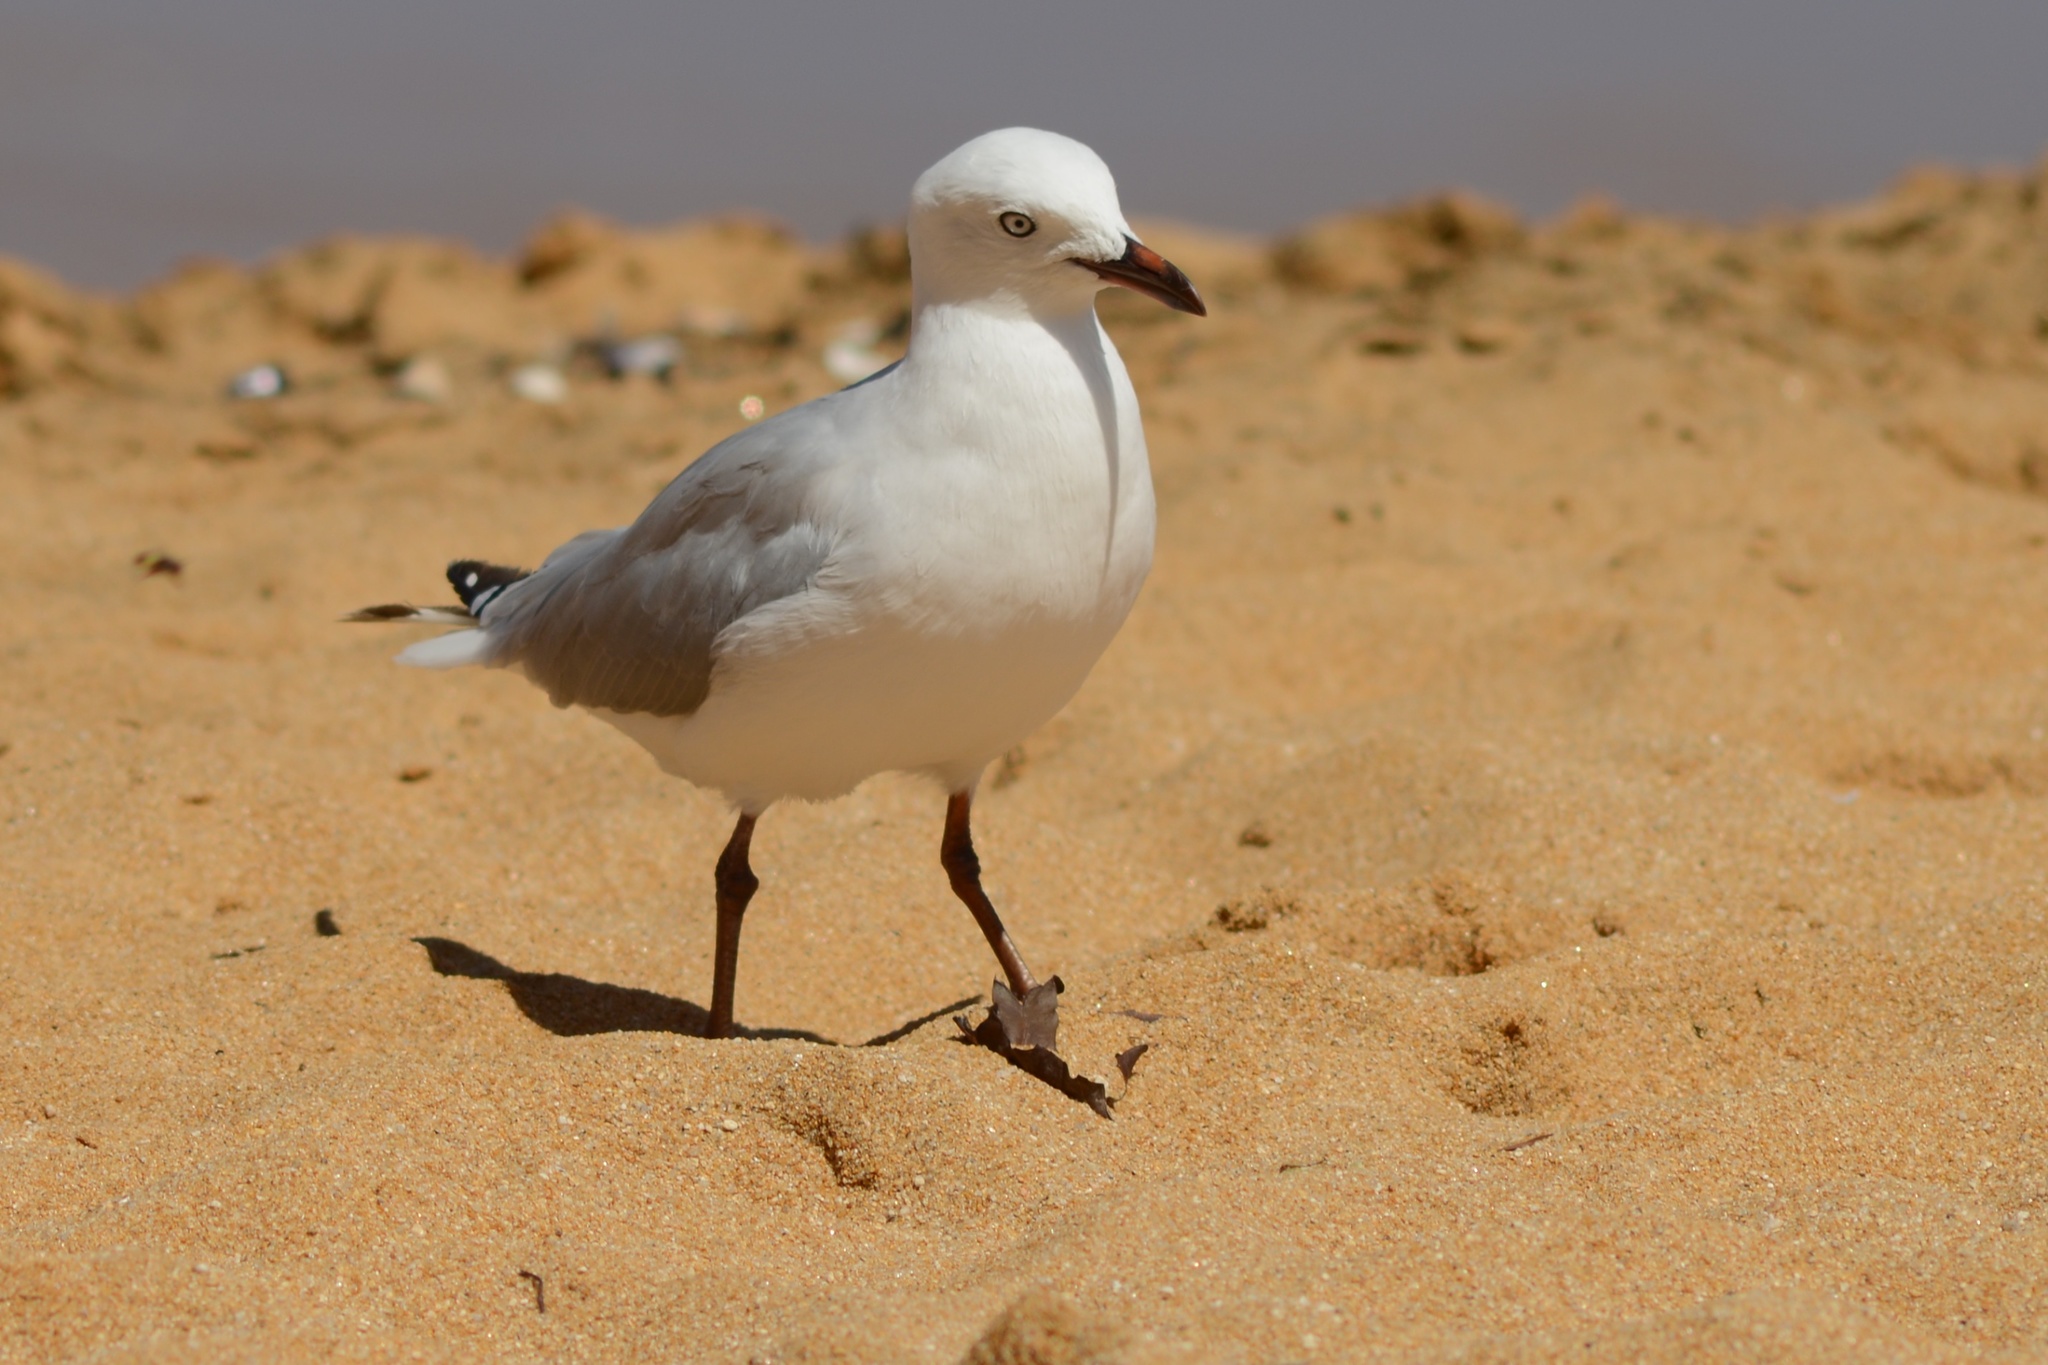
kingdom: Animalia
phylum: Chordata
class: Aves
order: Charadriiformes
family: Laridae
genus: Chroicocephalus
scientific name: Chroicocephalus novaehollandiae
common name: Silver gull
